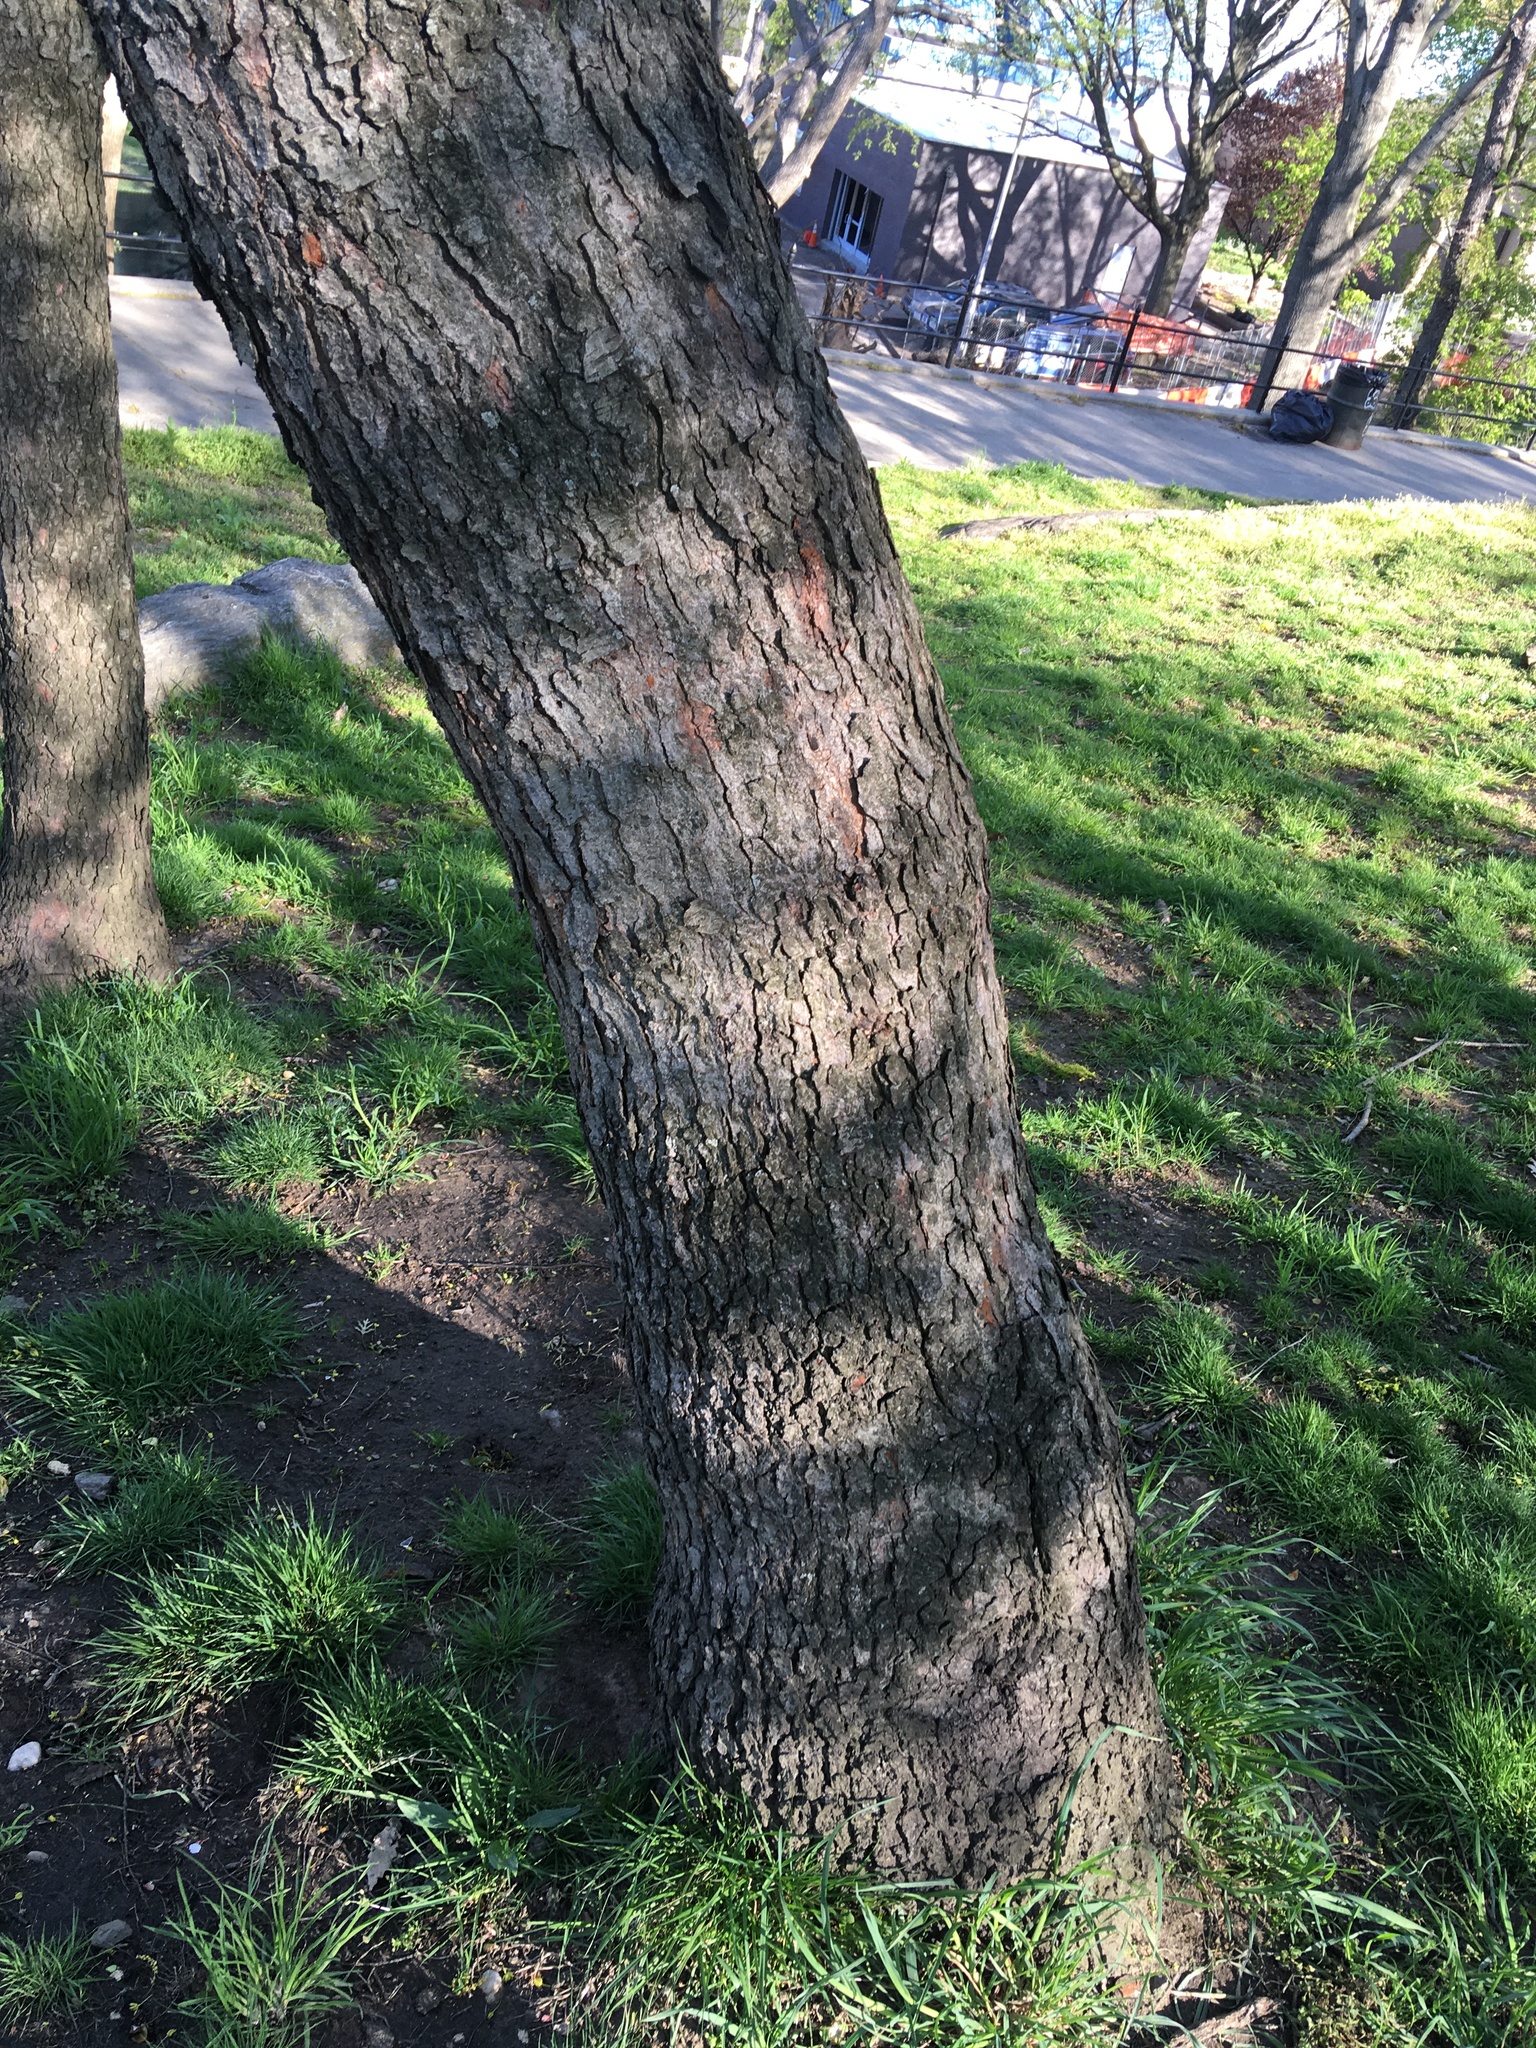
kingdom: Plantae
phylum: Tracheophyta
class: Magnoliopsida
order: Rosales
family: Rosaceae
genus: Prunus
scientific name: Prunus serotina
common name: Black cherry
